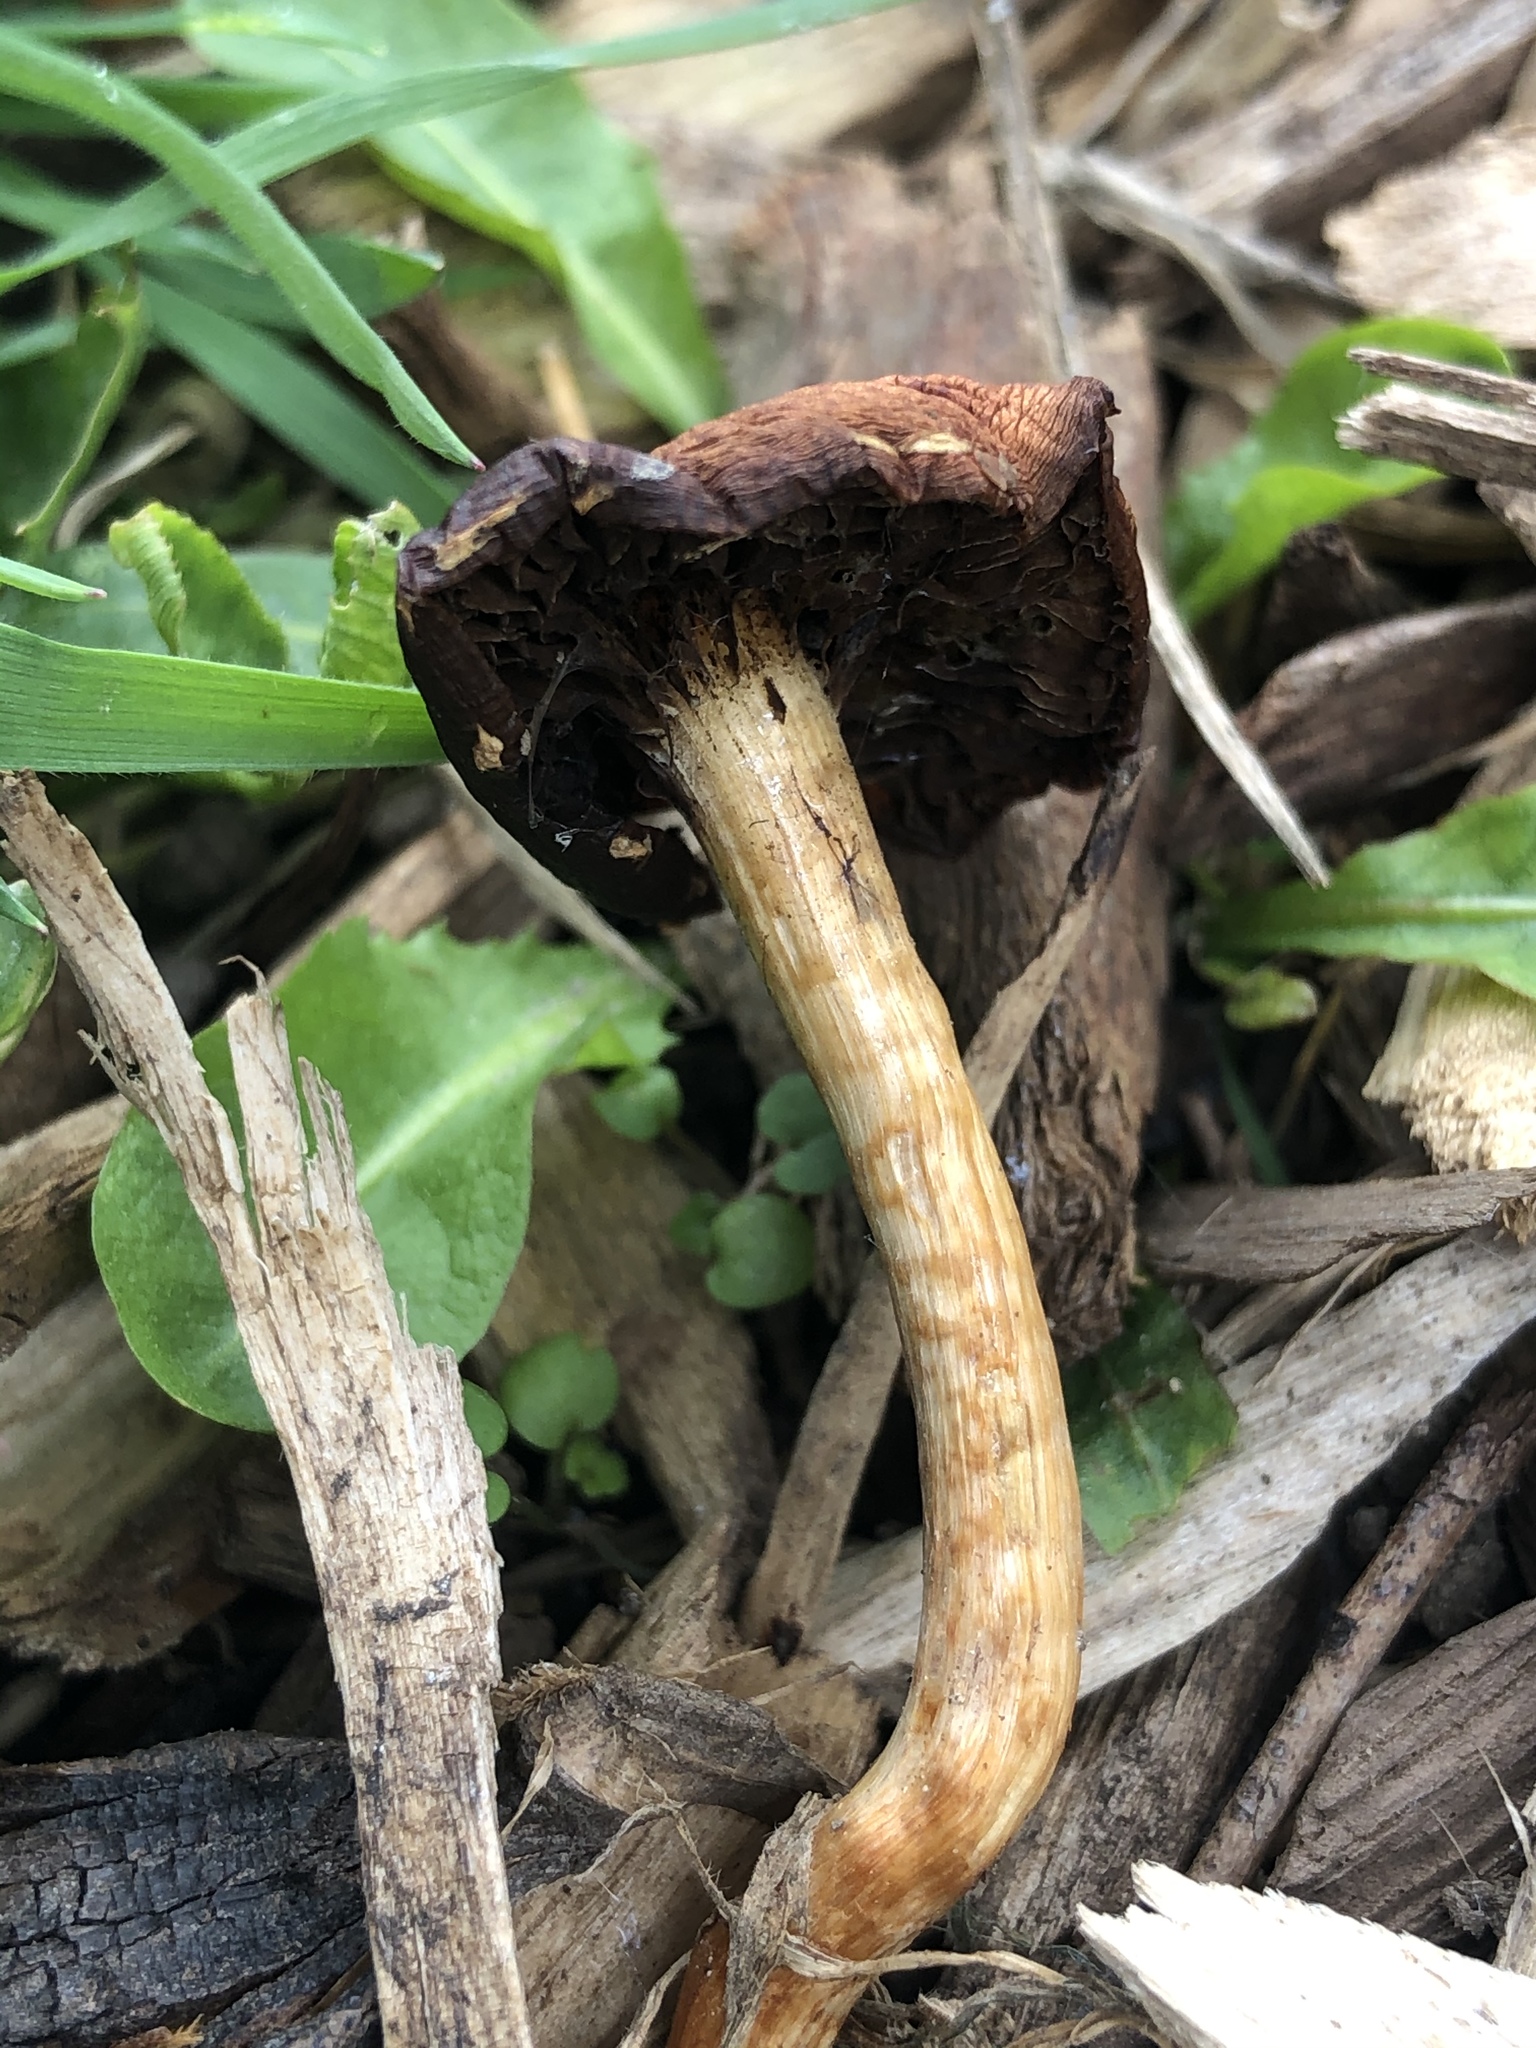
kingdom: Fungi
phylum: Basidiomycota
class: Agaricomycetes
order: Agaricales
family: Strophariaceae
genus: Leratiomyces
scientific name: Leratiomyces ceres
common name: Redlead roundhead
